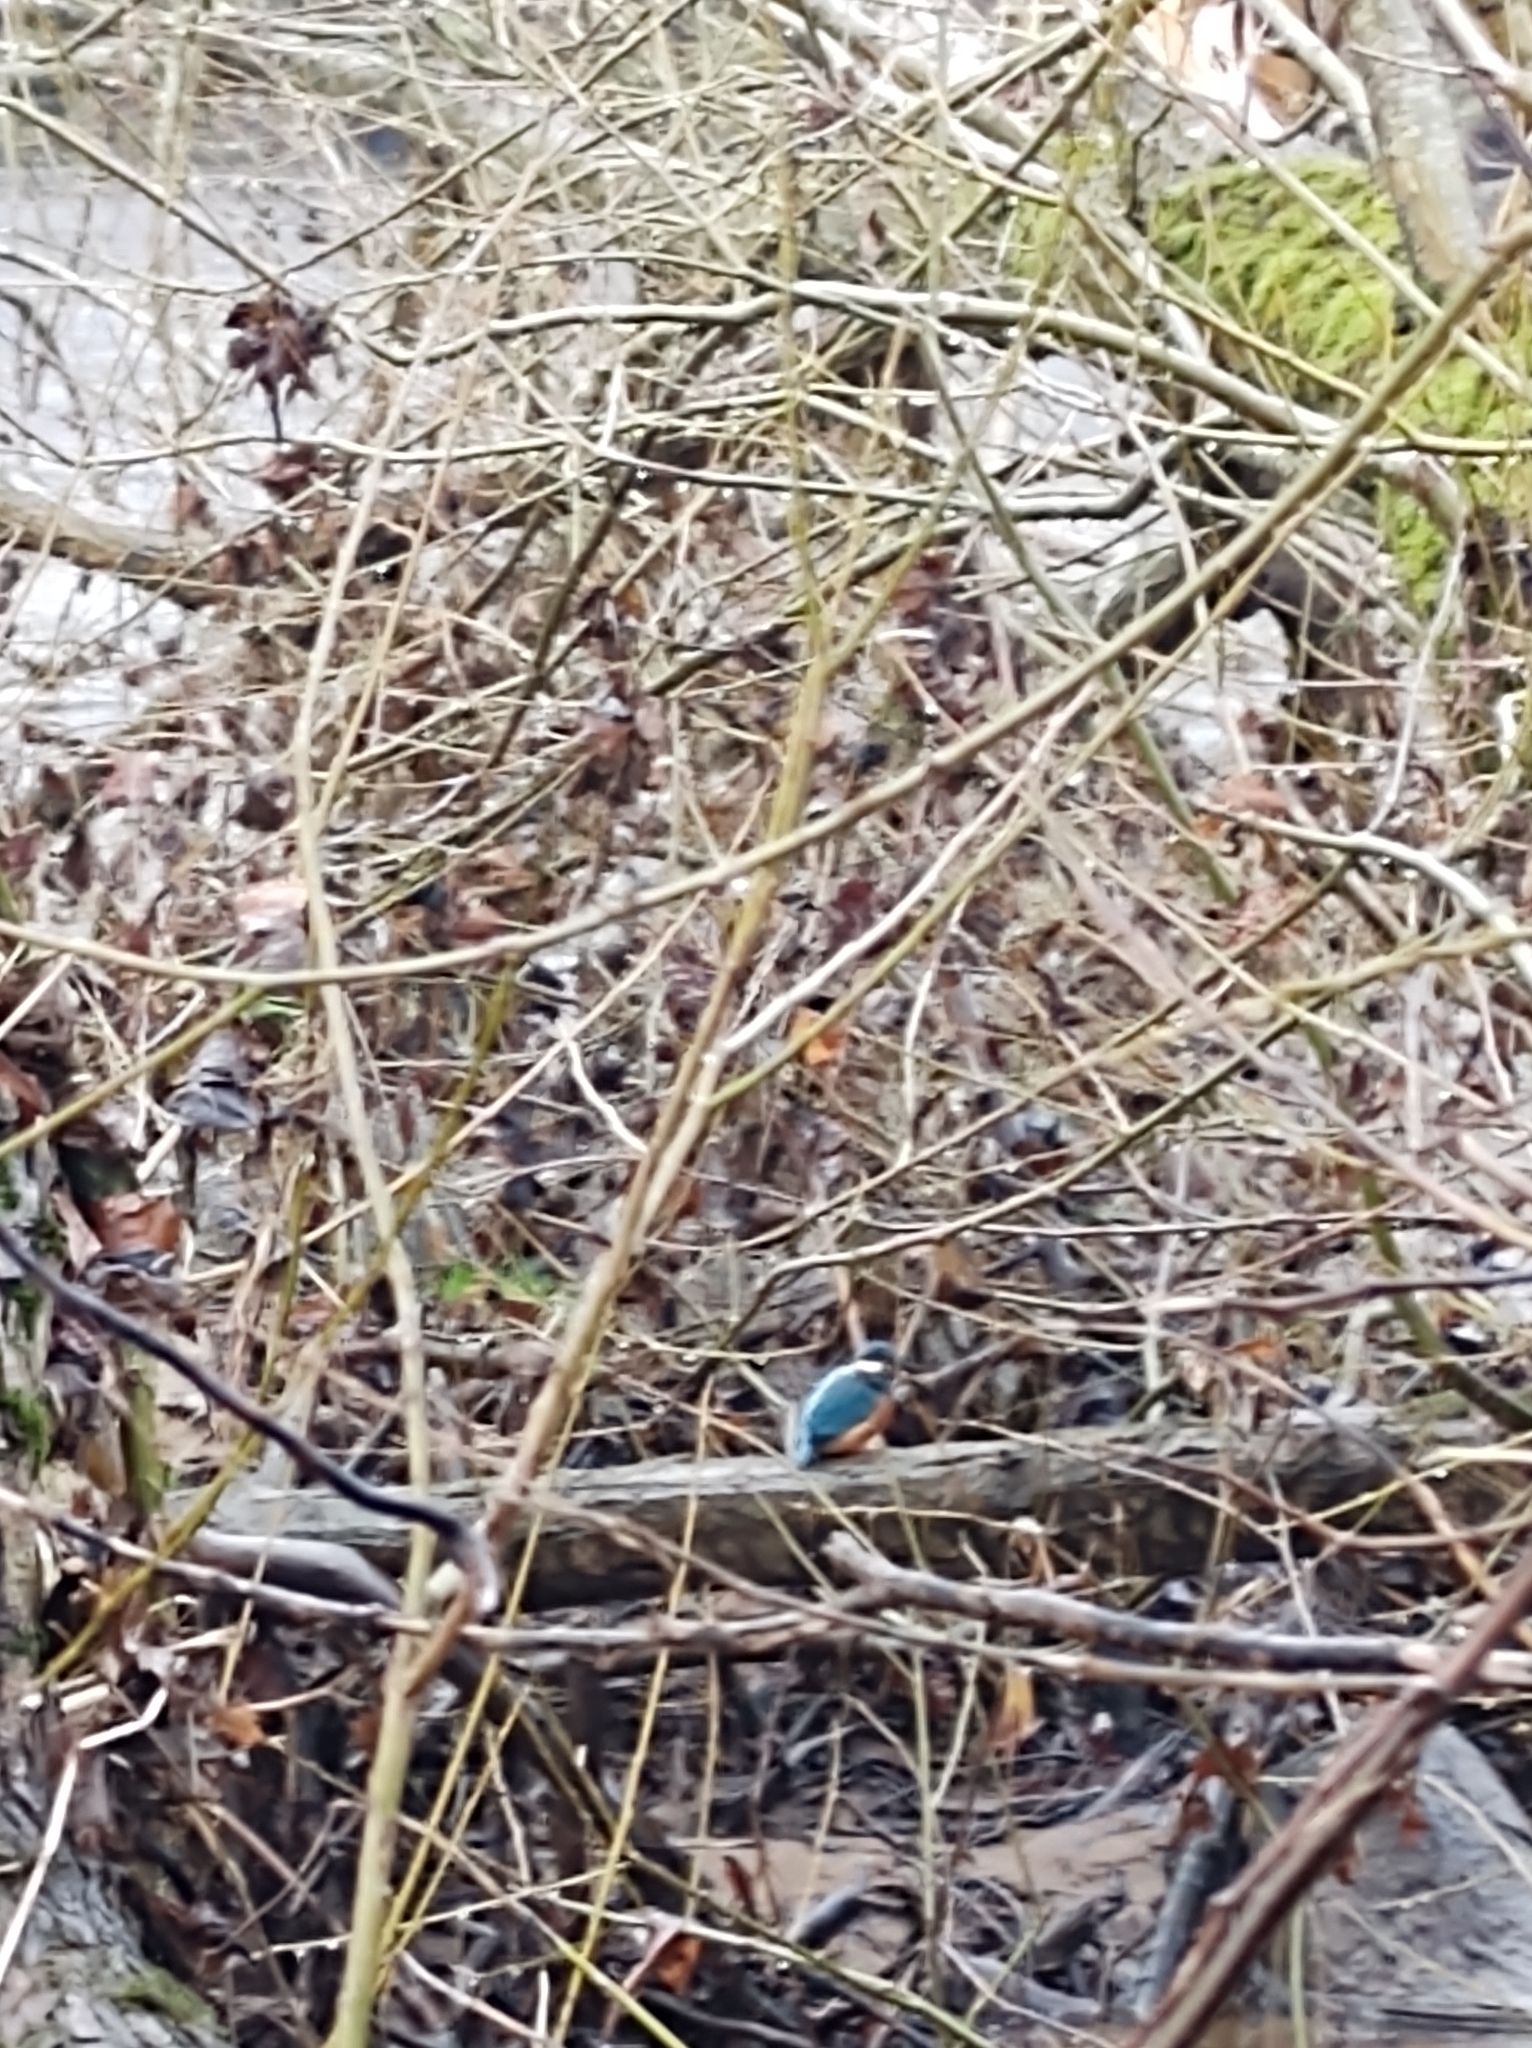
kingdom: Animalia
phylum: Chordata
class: Aves
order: Coraciiformes
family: Alcedinidae
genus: Alcedo
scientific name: Alcedo atthis
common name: Common kingfisher
